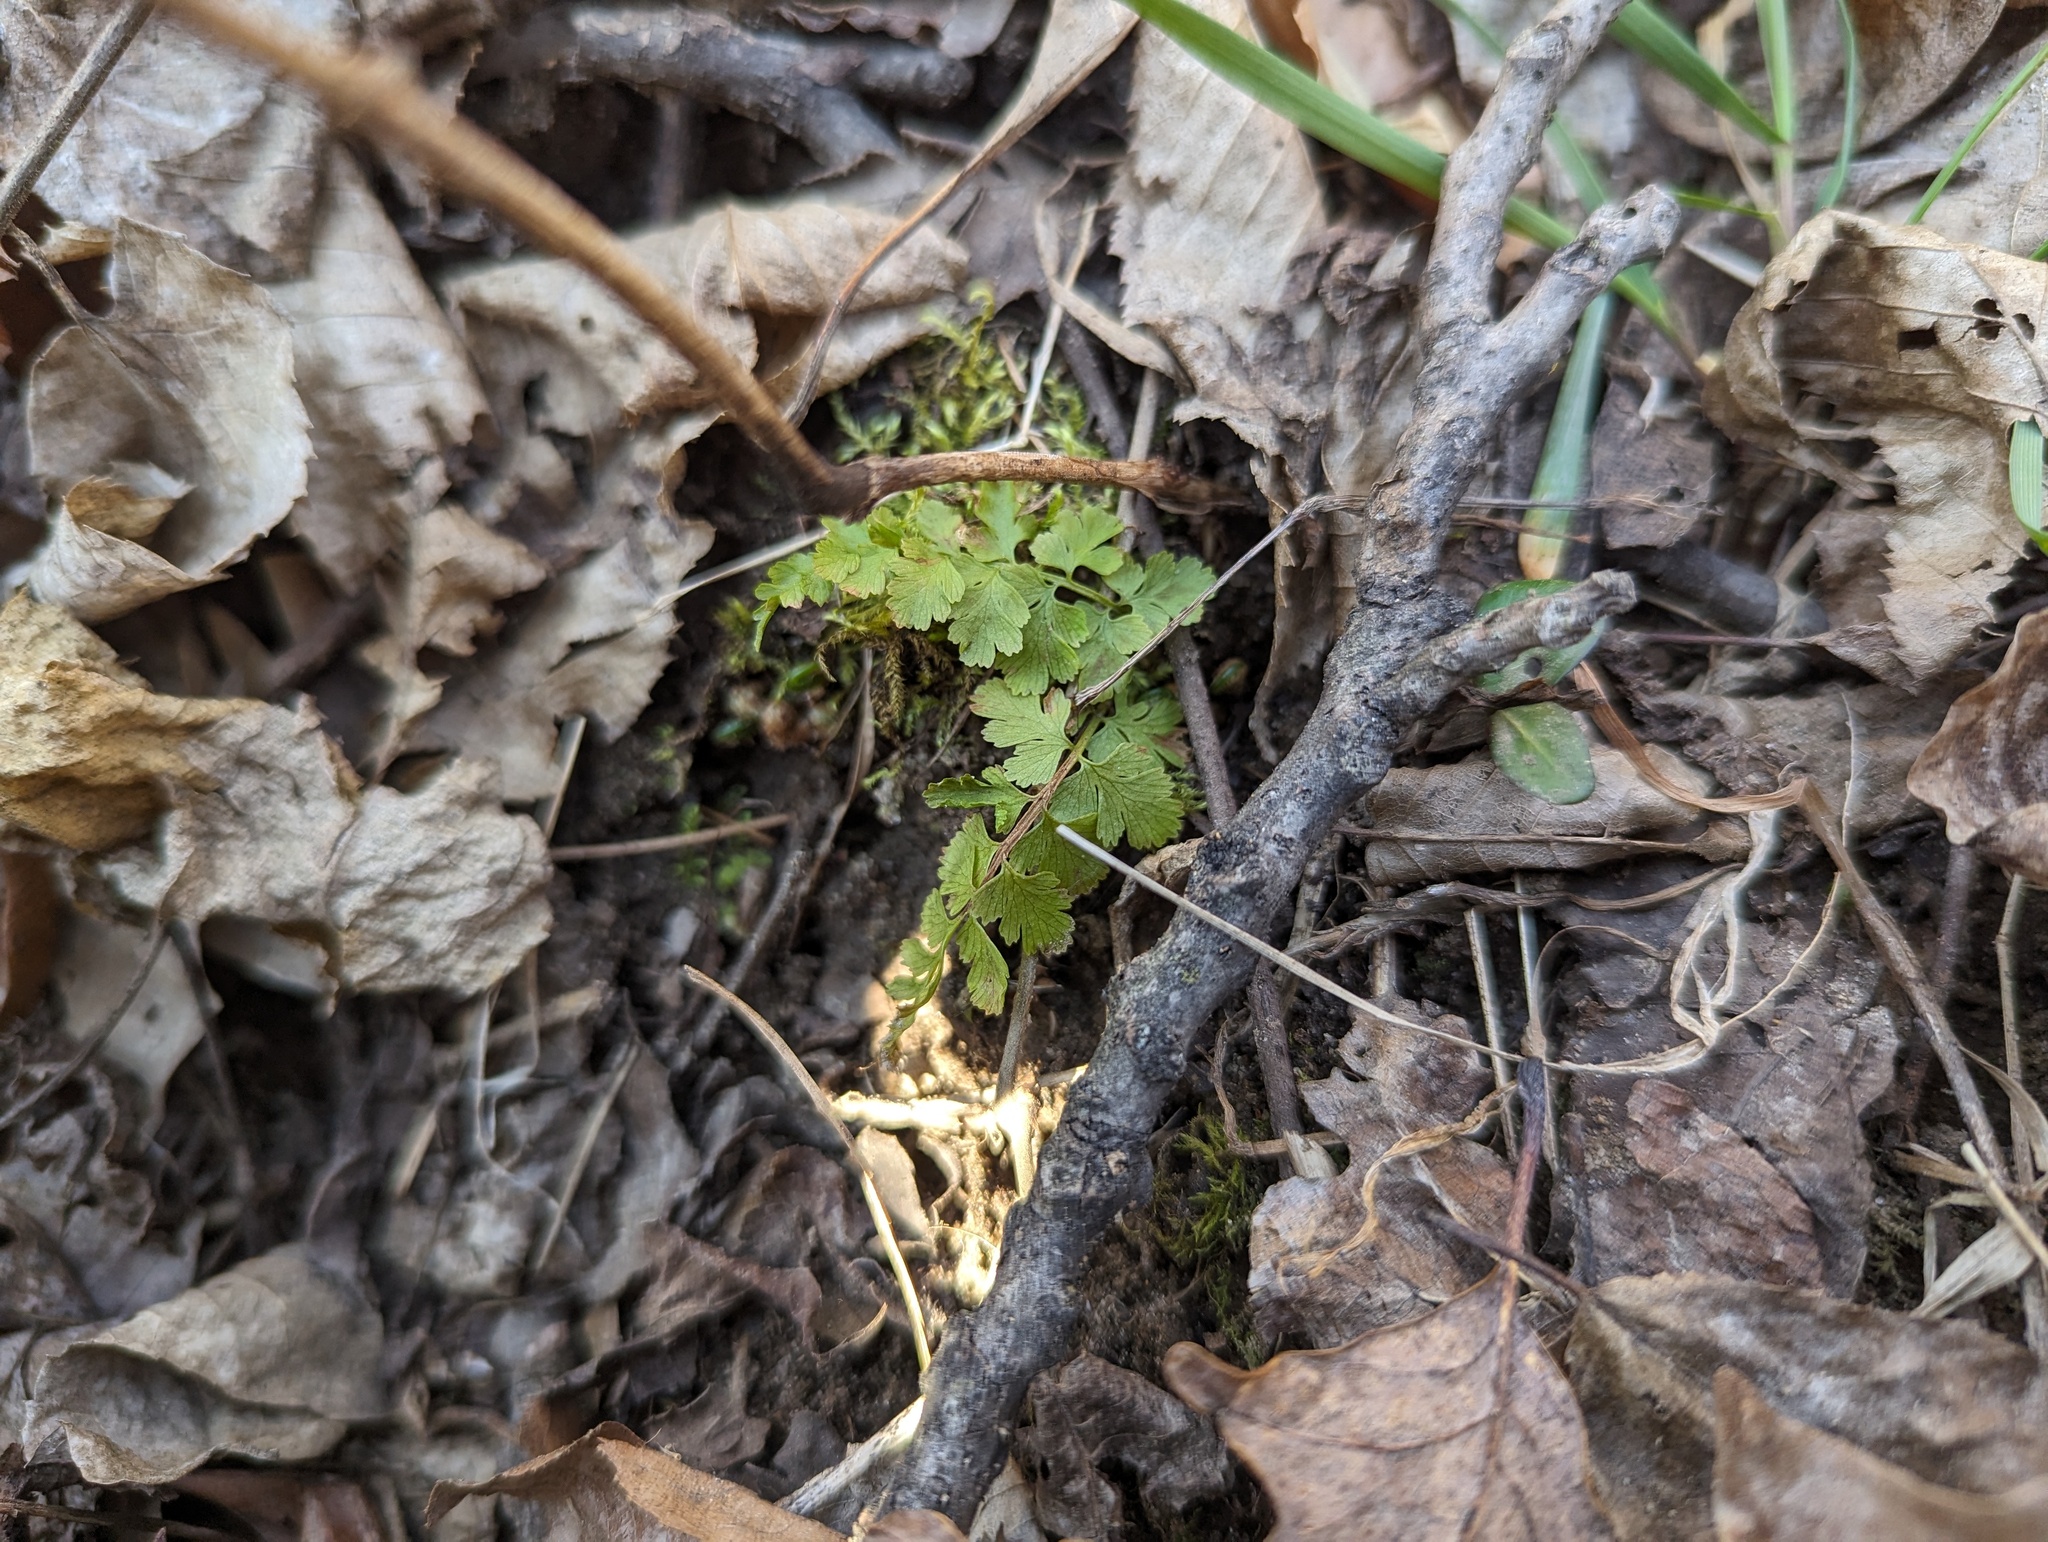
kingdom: Plantae
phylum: Tracheophyta
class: Polypodiopsida
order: Polypodiales
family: Woodsiaceae
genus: Physematium
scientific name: Physematium obtusum
